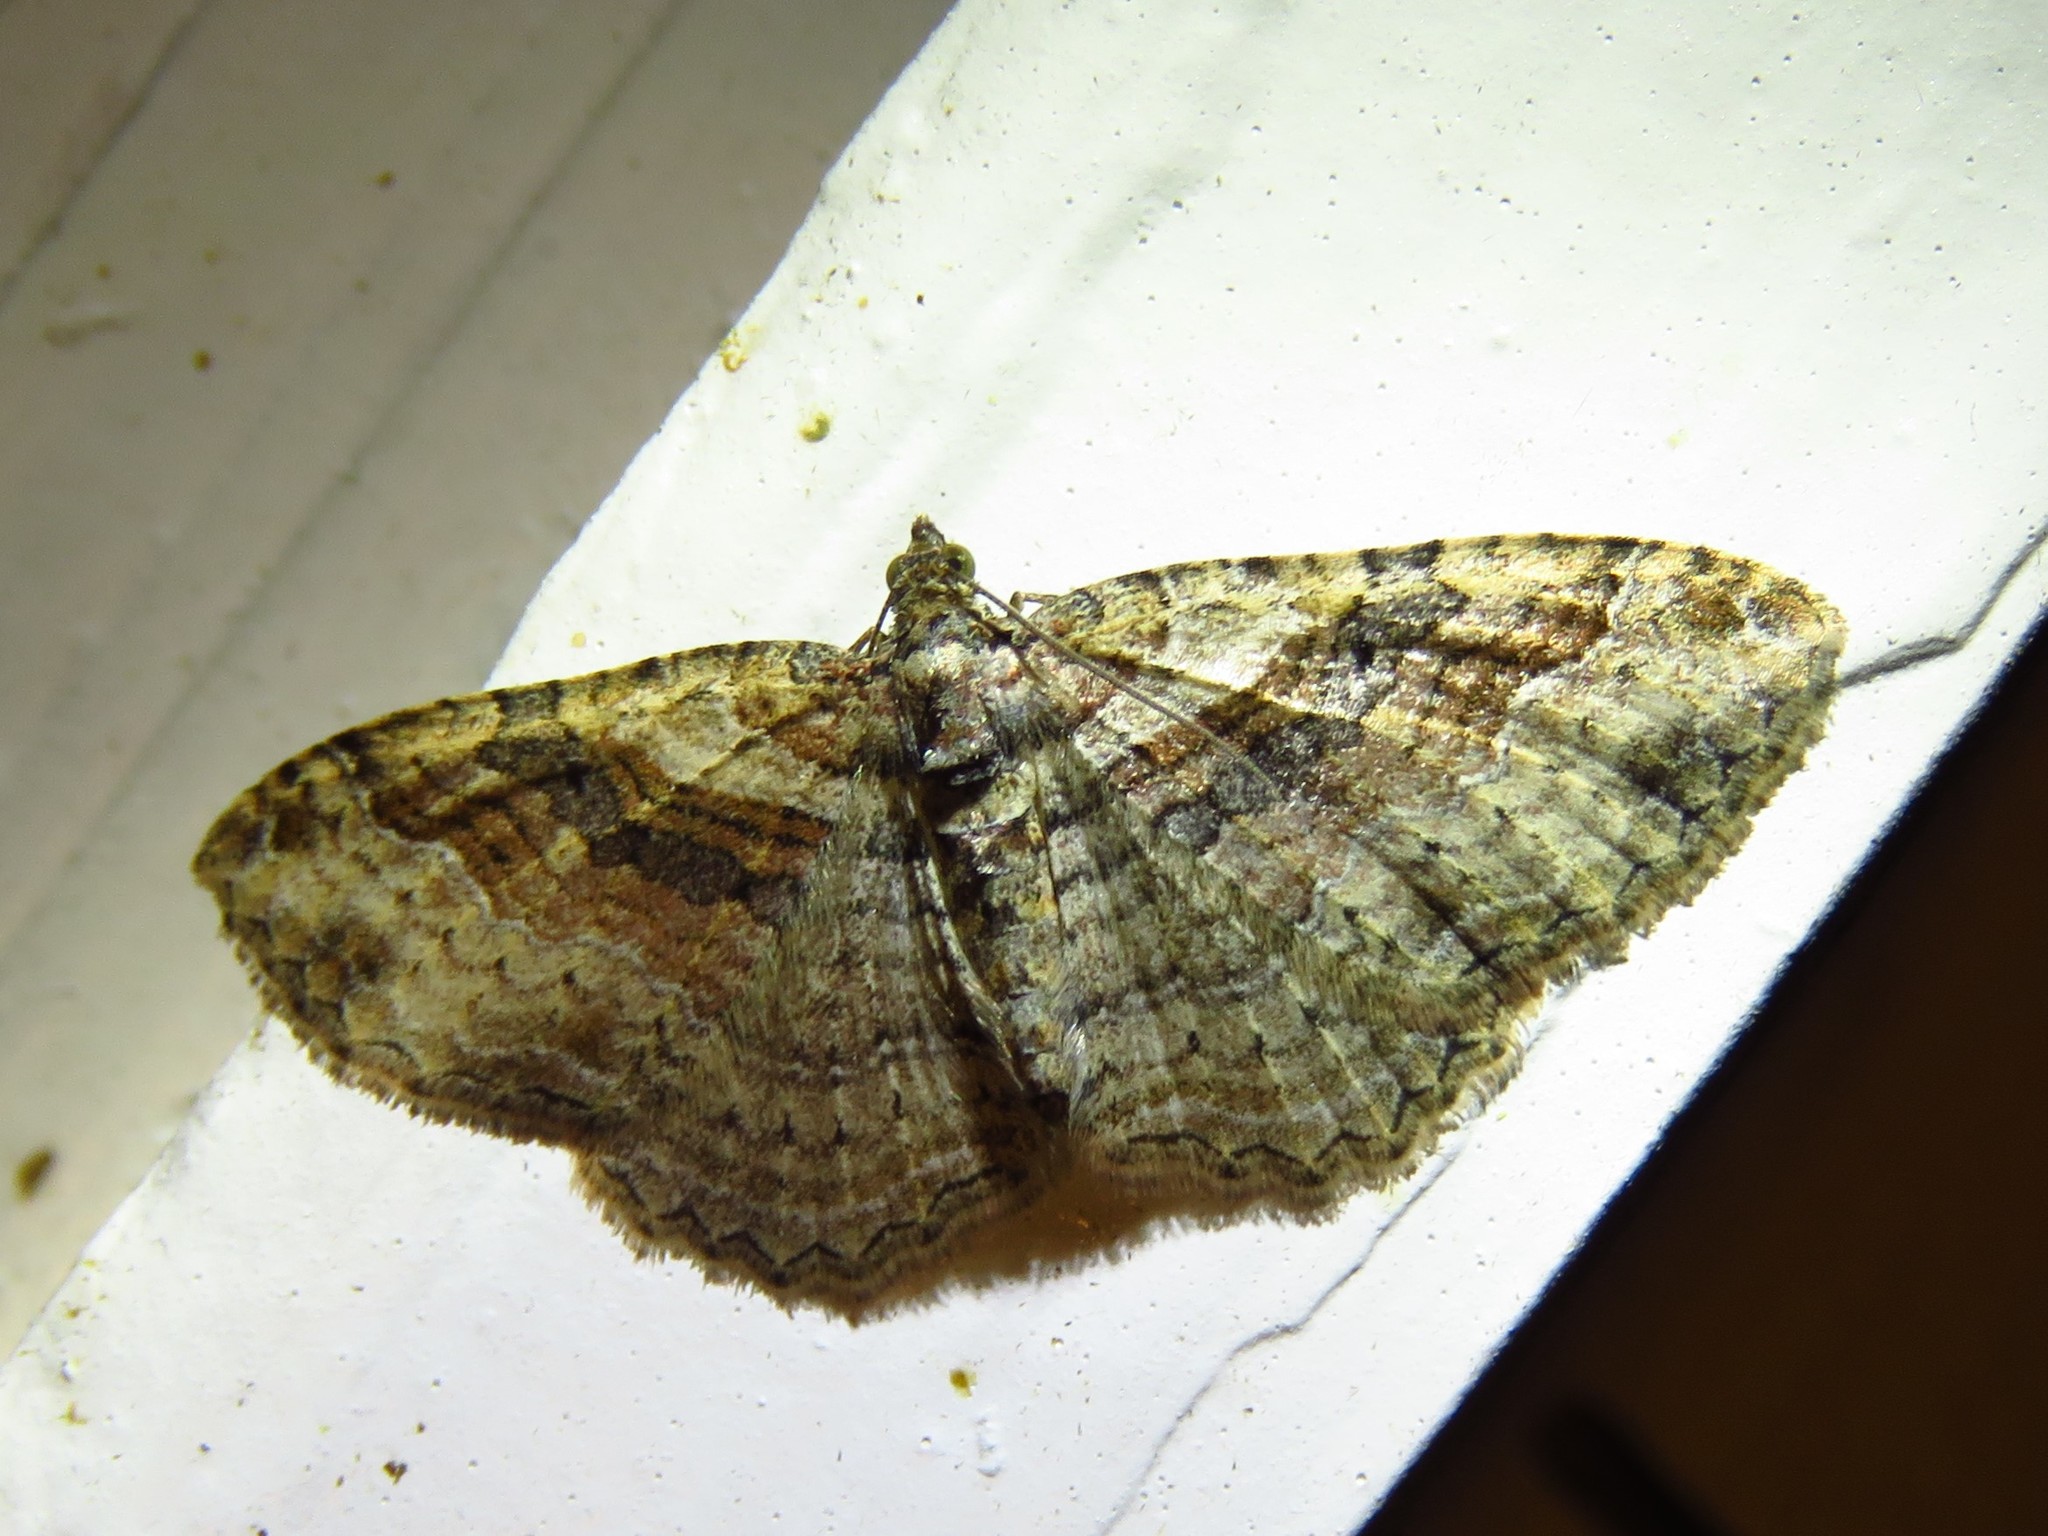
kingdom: Animalia
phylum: Arthropoda
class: Insecta
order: Lepidoptera
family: Geometridae
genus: Costaconvexa
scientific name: Costaconvexa centrostrigaria
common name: Bent-line carpet
